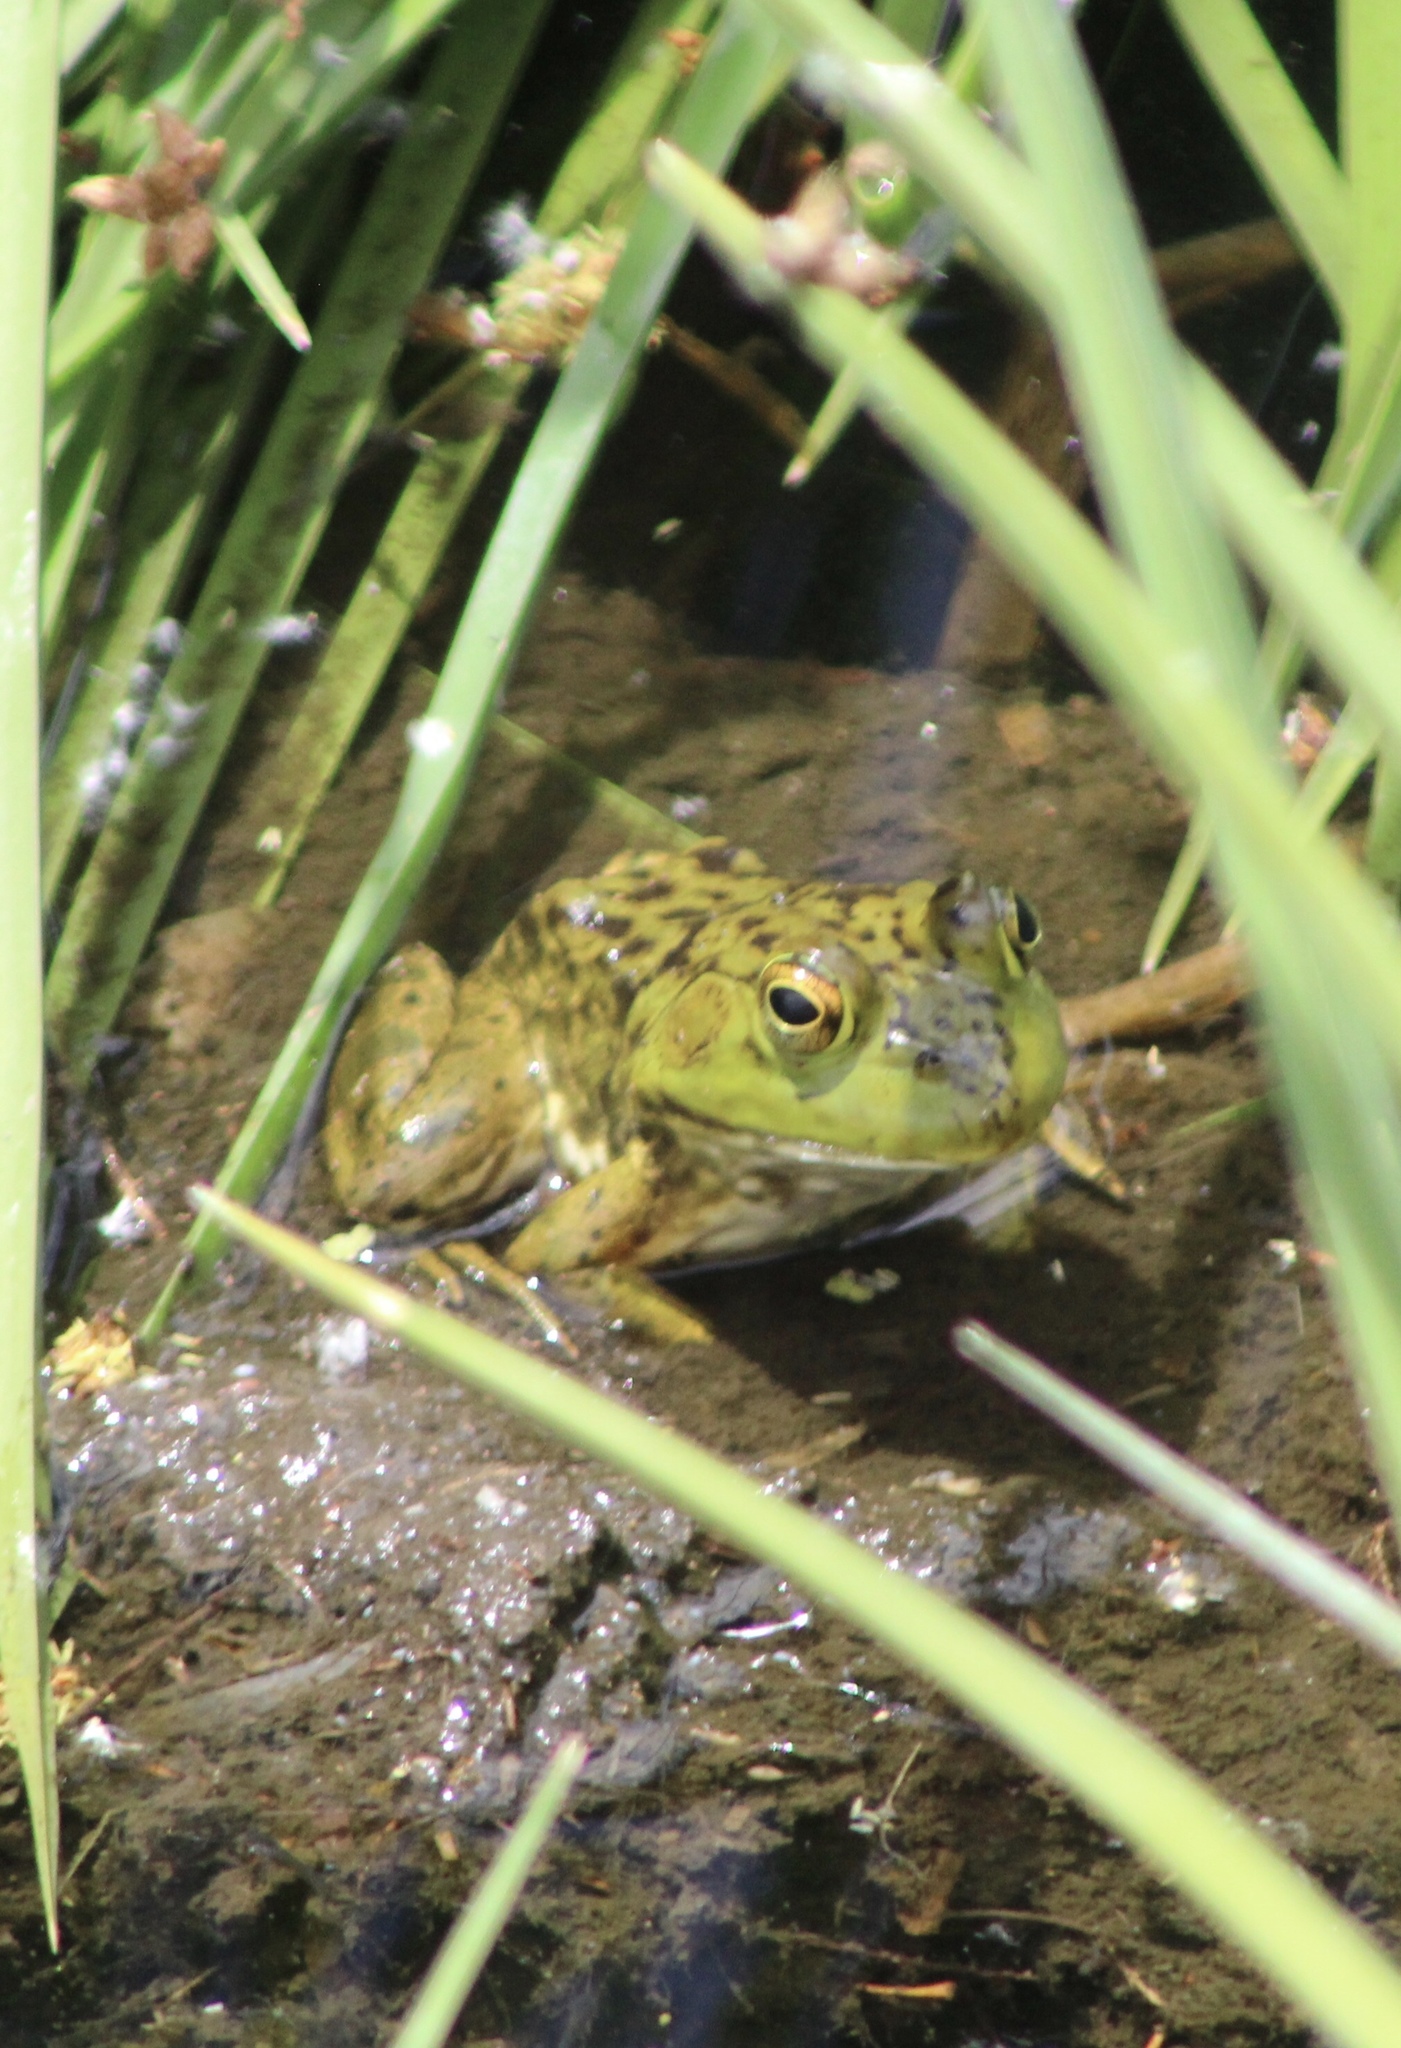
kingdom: Animalia
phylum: Chordata
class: Amphibia
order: Anura
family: Ranidae
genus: Lithobates
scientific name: Lithobates catesbeianus
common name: American bullfrog
